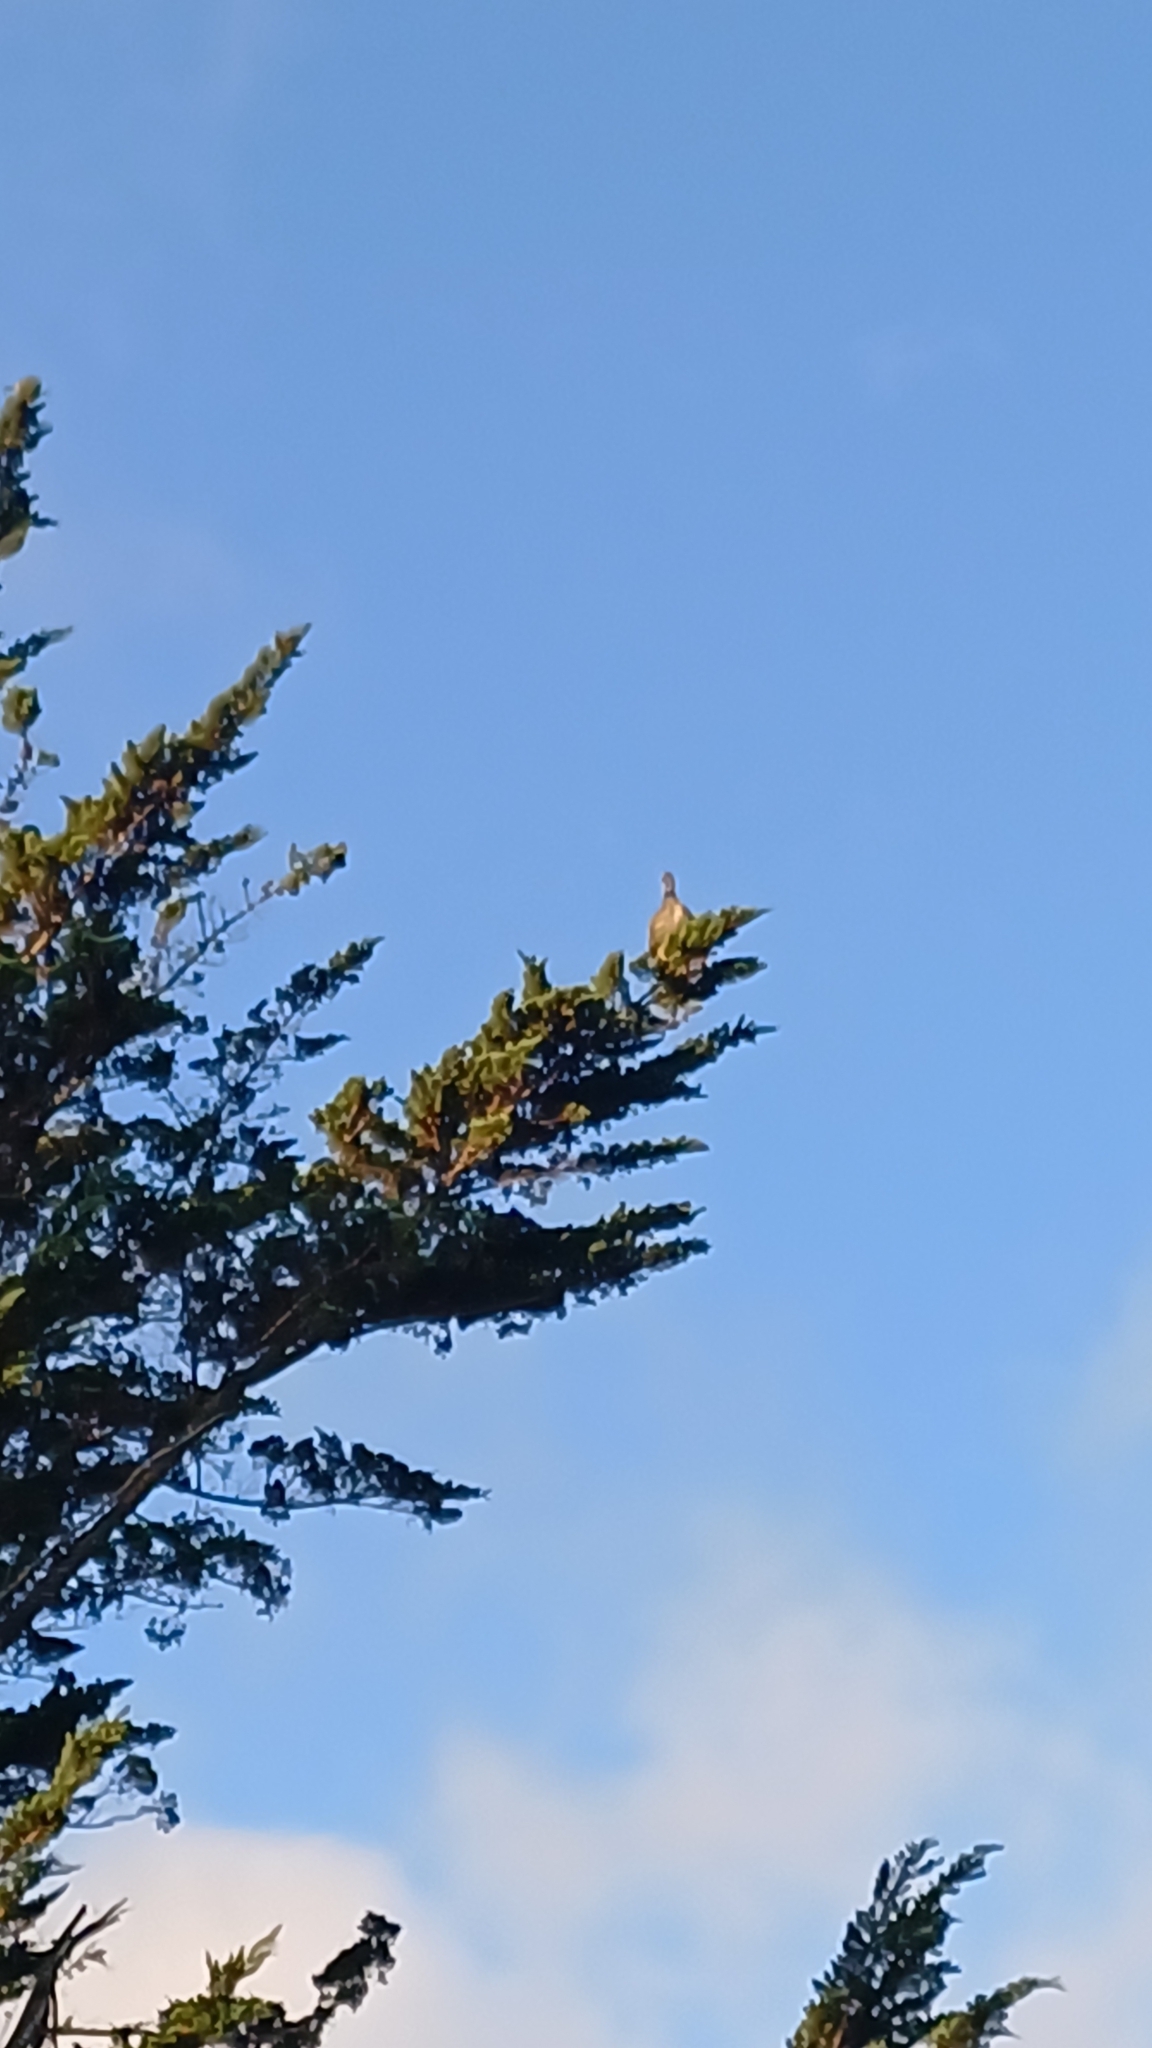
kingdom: Animalia
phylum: Chordata
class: Aves
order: Anseriformes
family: Anhimidae
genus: Chauna
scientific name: Chauna torquata
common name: Southern screamer
